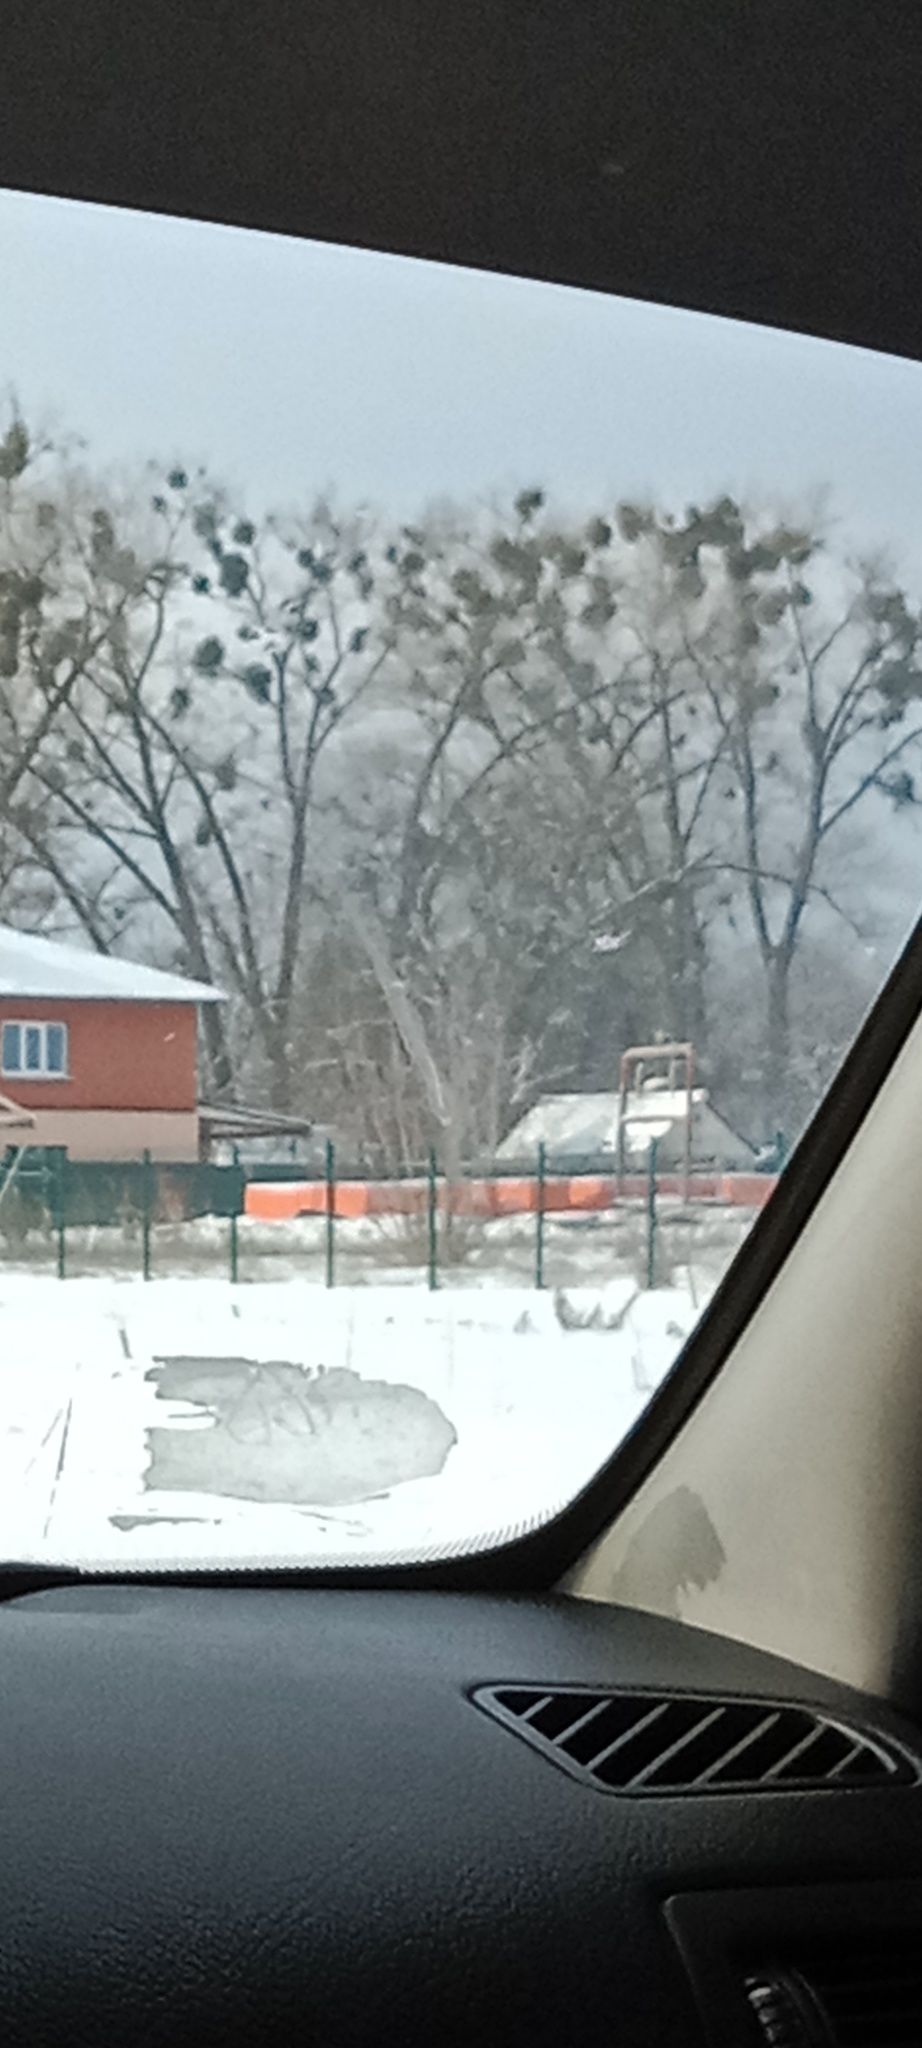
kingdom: Plantae
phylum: Tracheophyta
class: Magnoliopsida
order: Santalales
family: Viscaceae
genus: Viscum
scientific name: Viscum album
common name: Mistletoe
